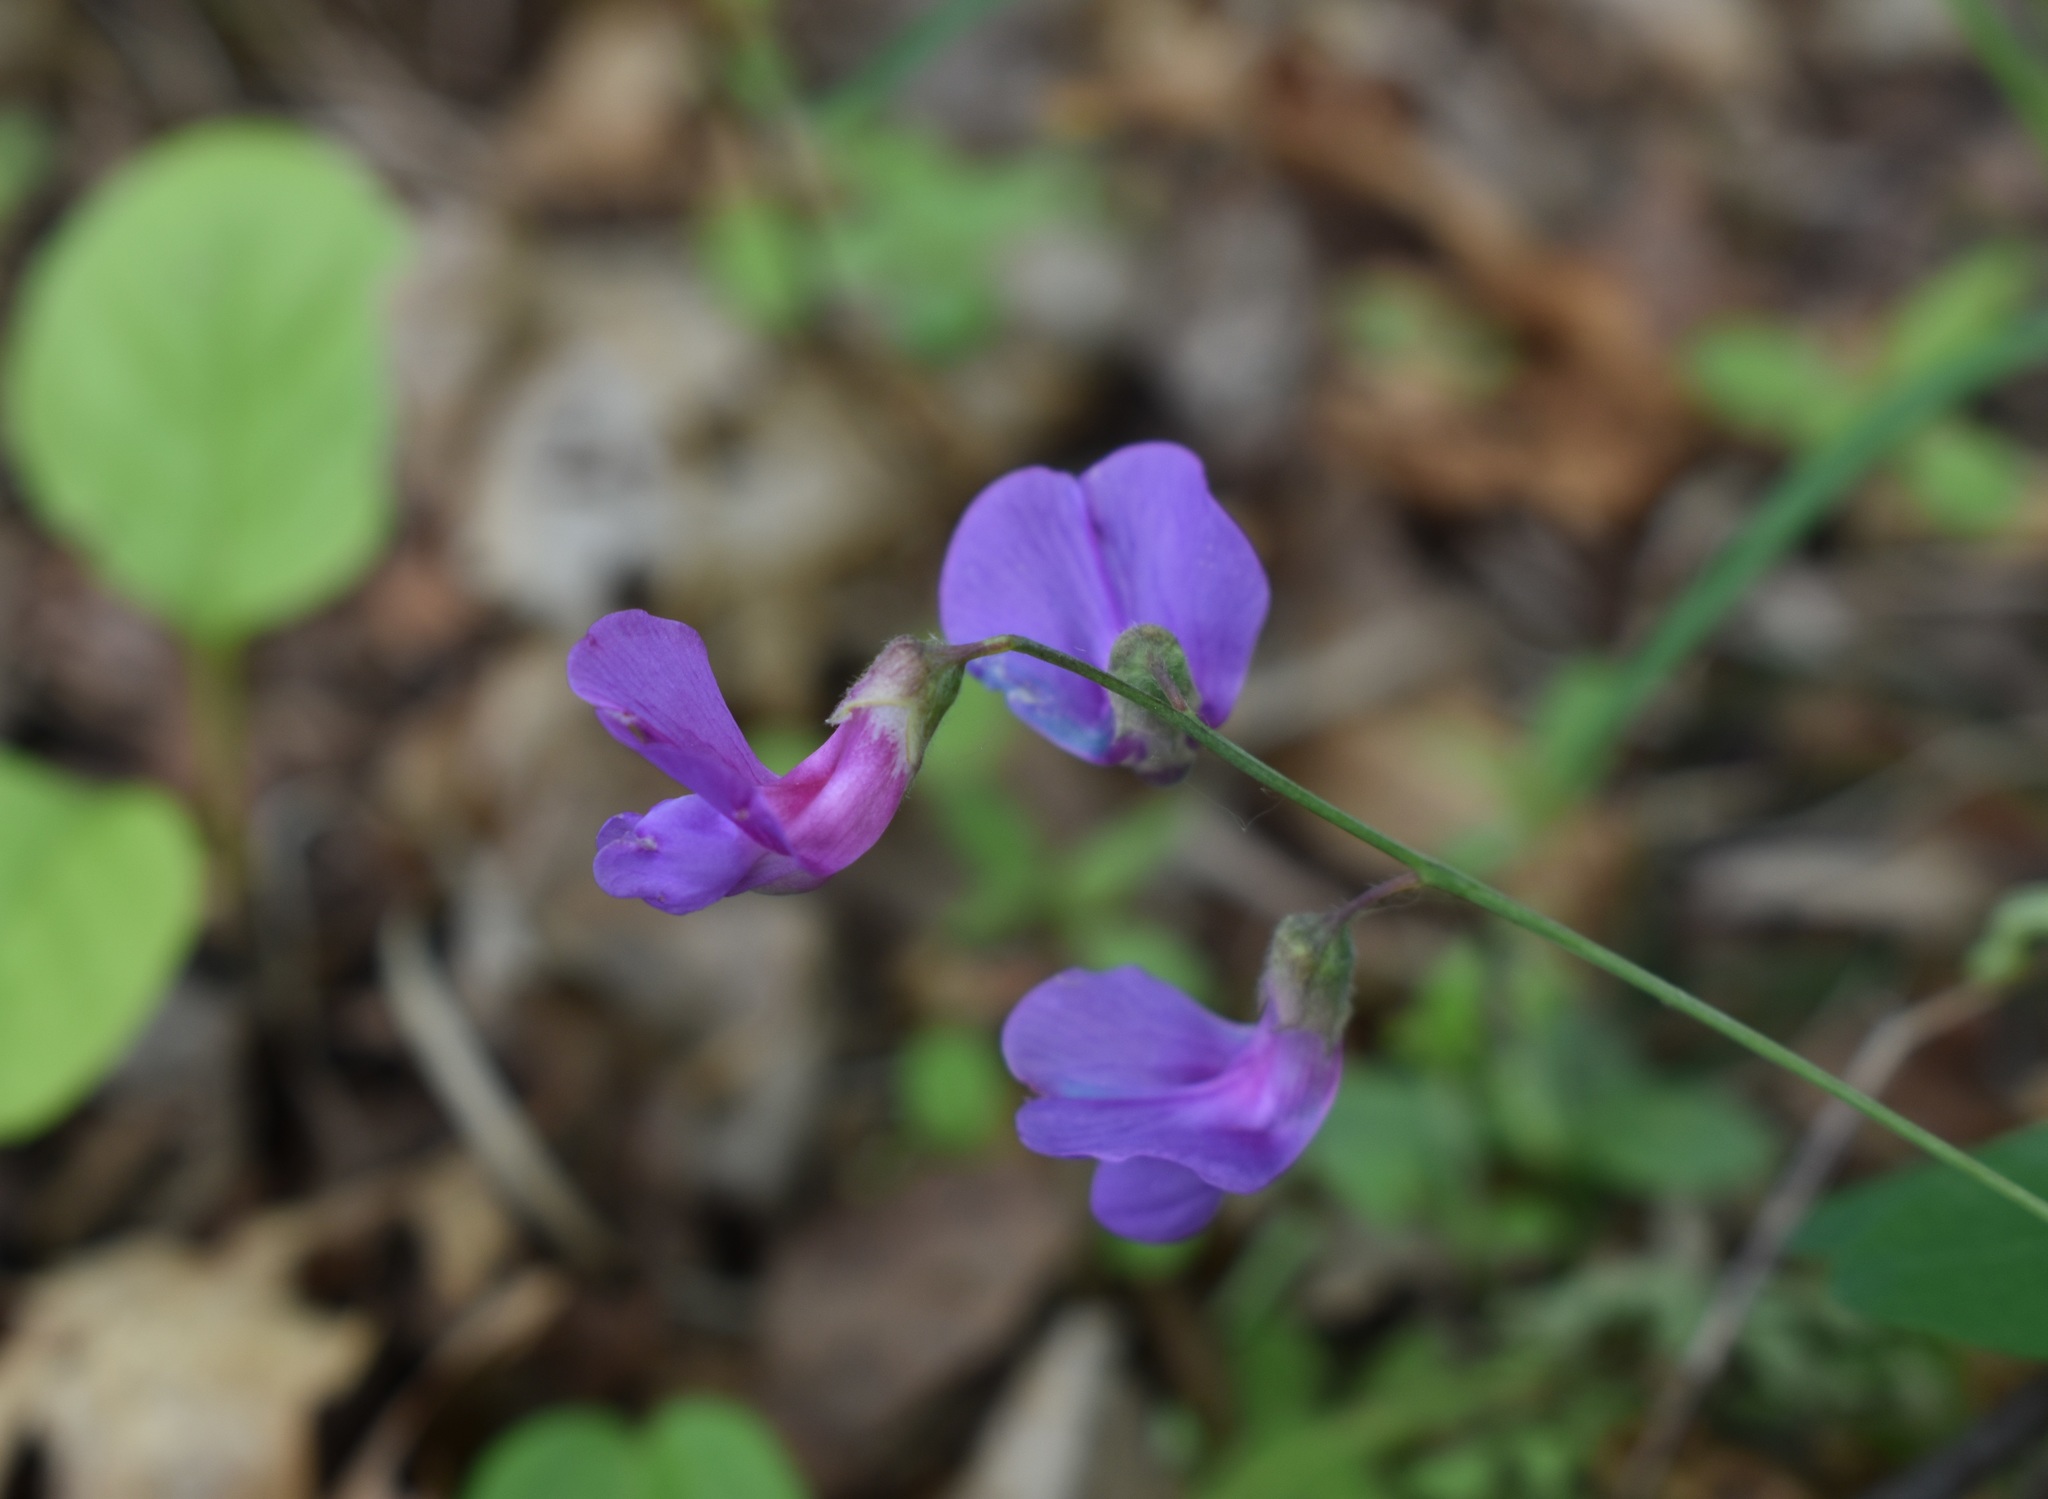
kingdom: Plantae
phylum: Tracheophyta
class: Magnoliopsida
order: Fabales
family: Fabaceae
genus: Lathyrus
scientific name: Lathyrus humilis
